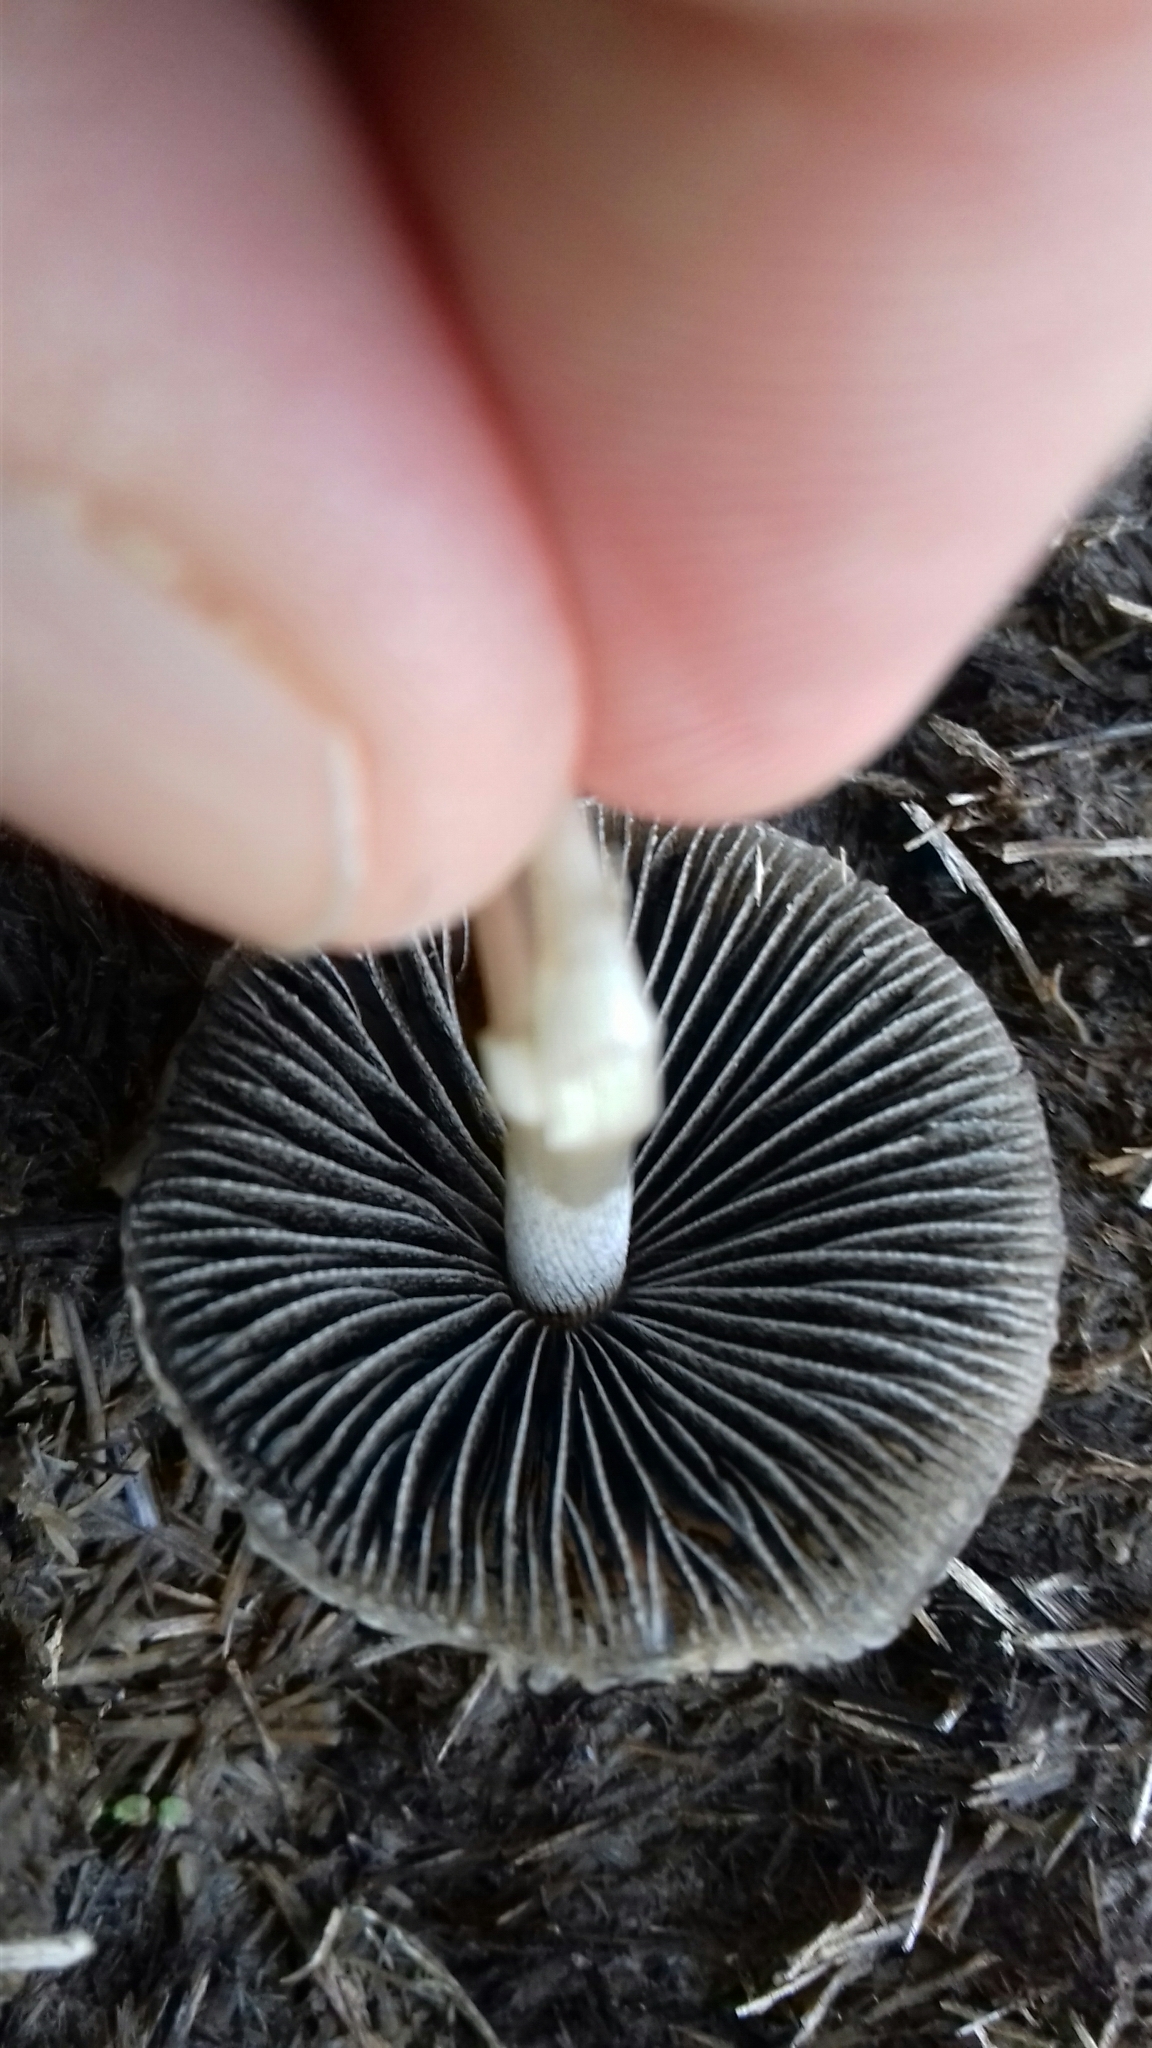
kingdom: Fungi
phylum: Basidiomycota
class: Agaricomycetes
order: Agaricales
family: Bolbitiaceae
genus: Panaeolus
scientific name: Panaeolus antillarum
